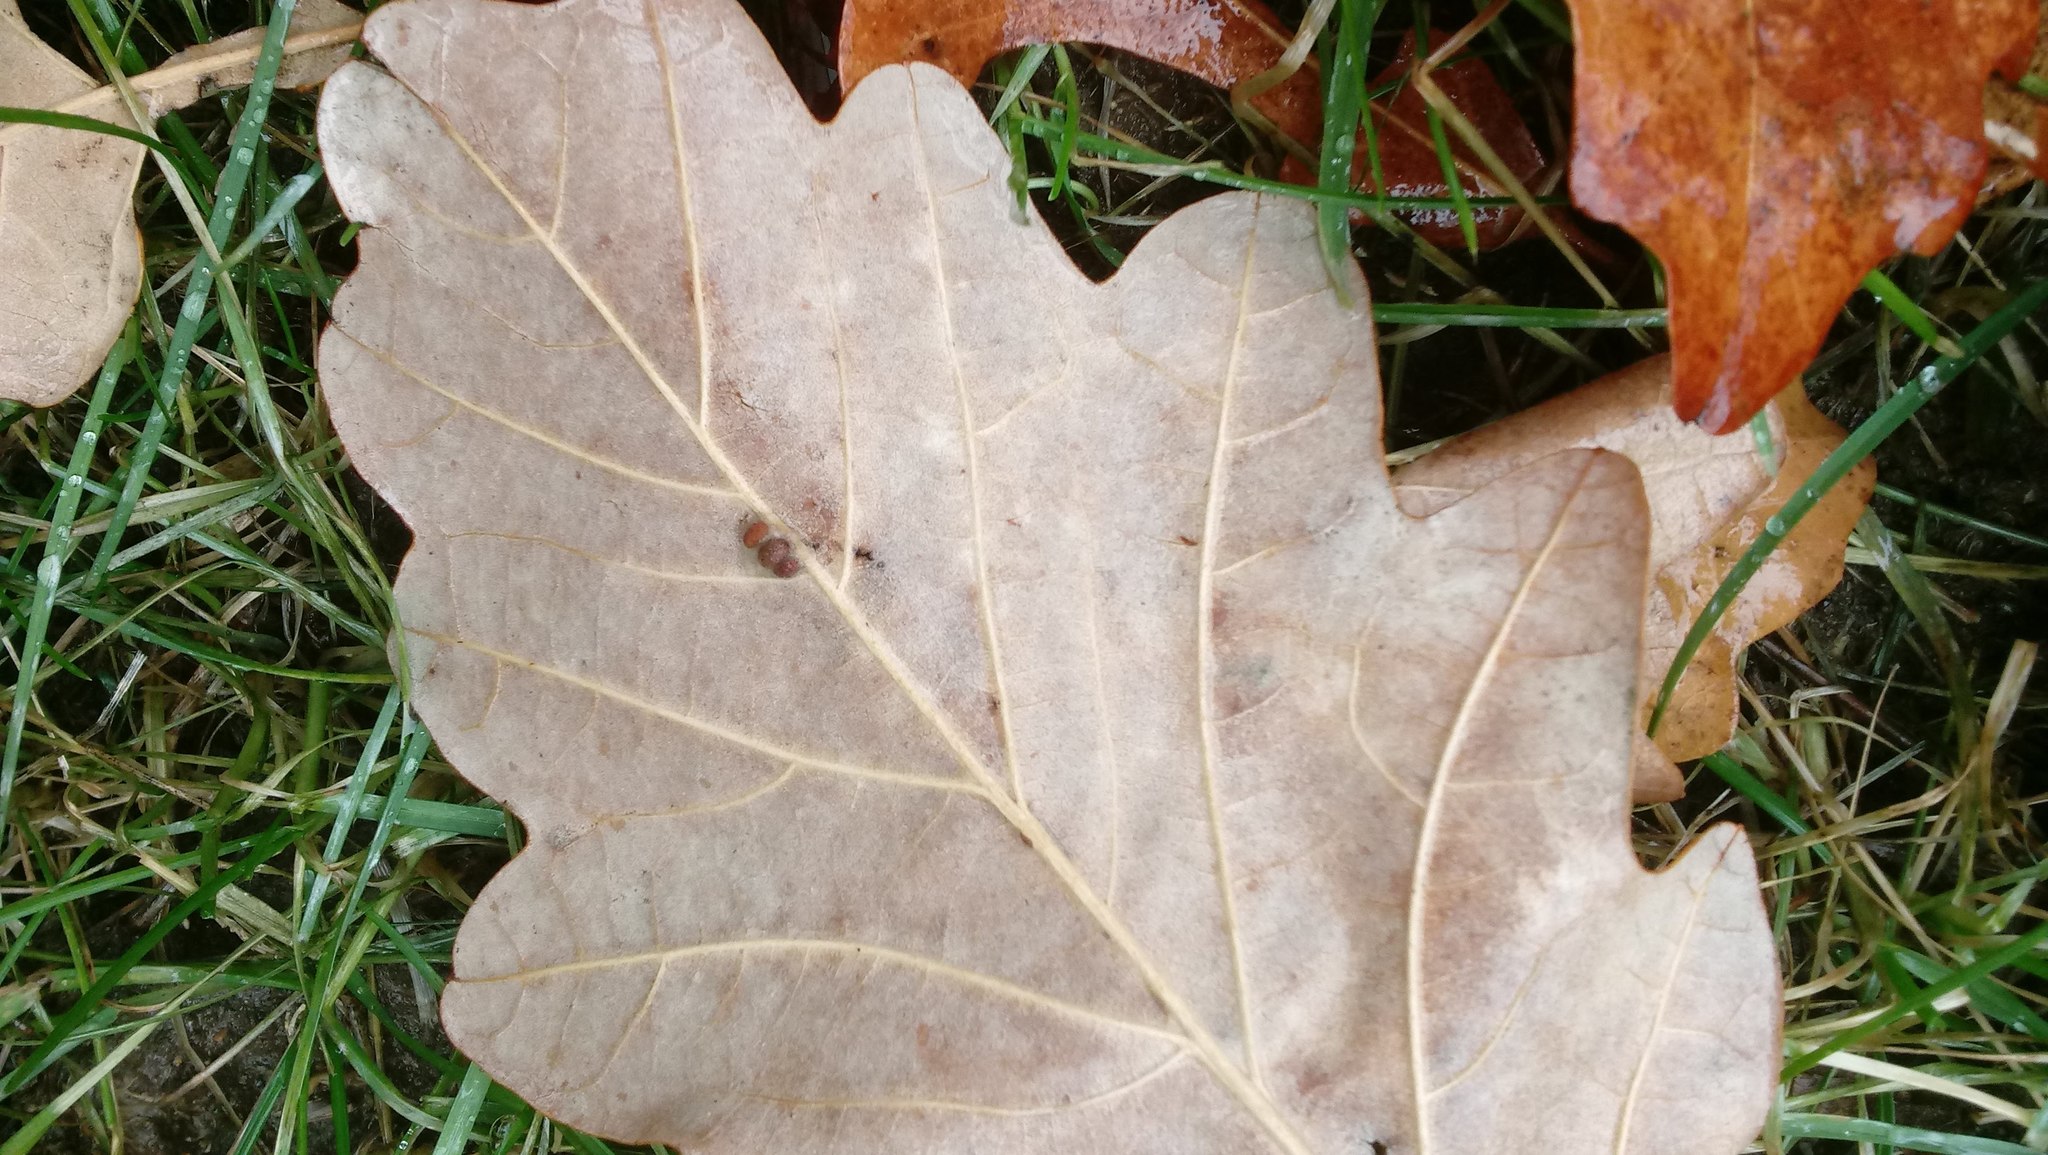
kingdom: Animalia
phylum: Arthropoda
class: Insecta
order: Hymenoptera
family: Cynipidae
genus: Andricus
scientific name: Andricus Druon ignotum
